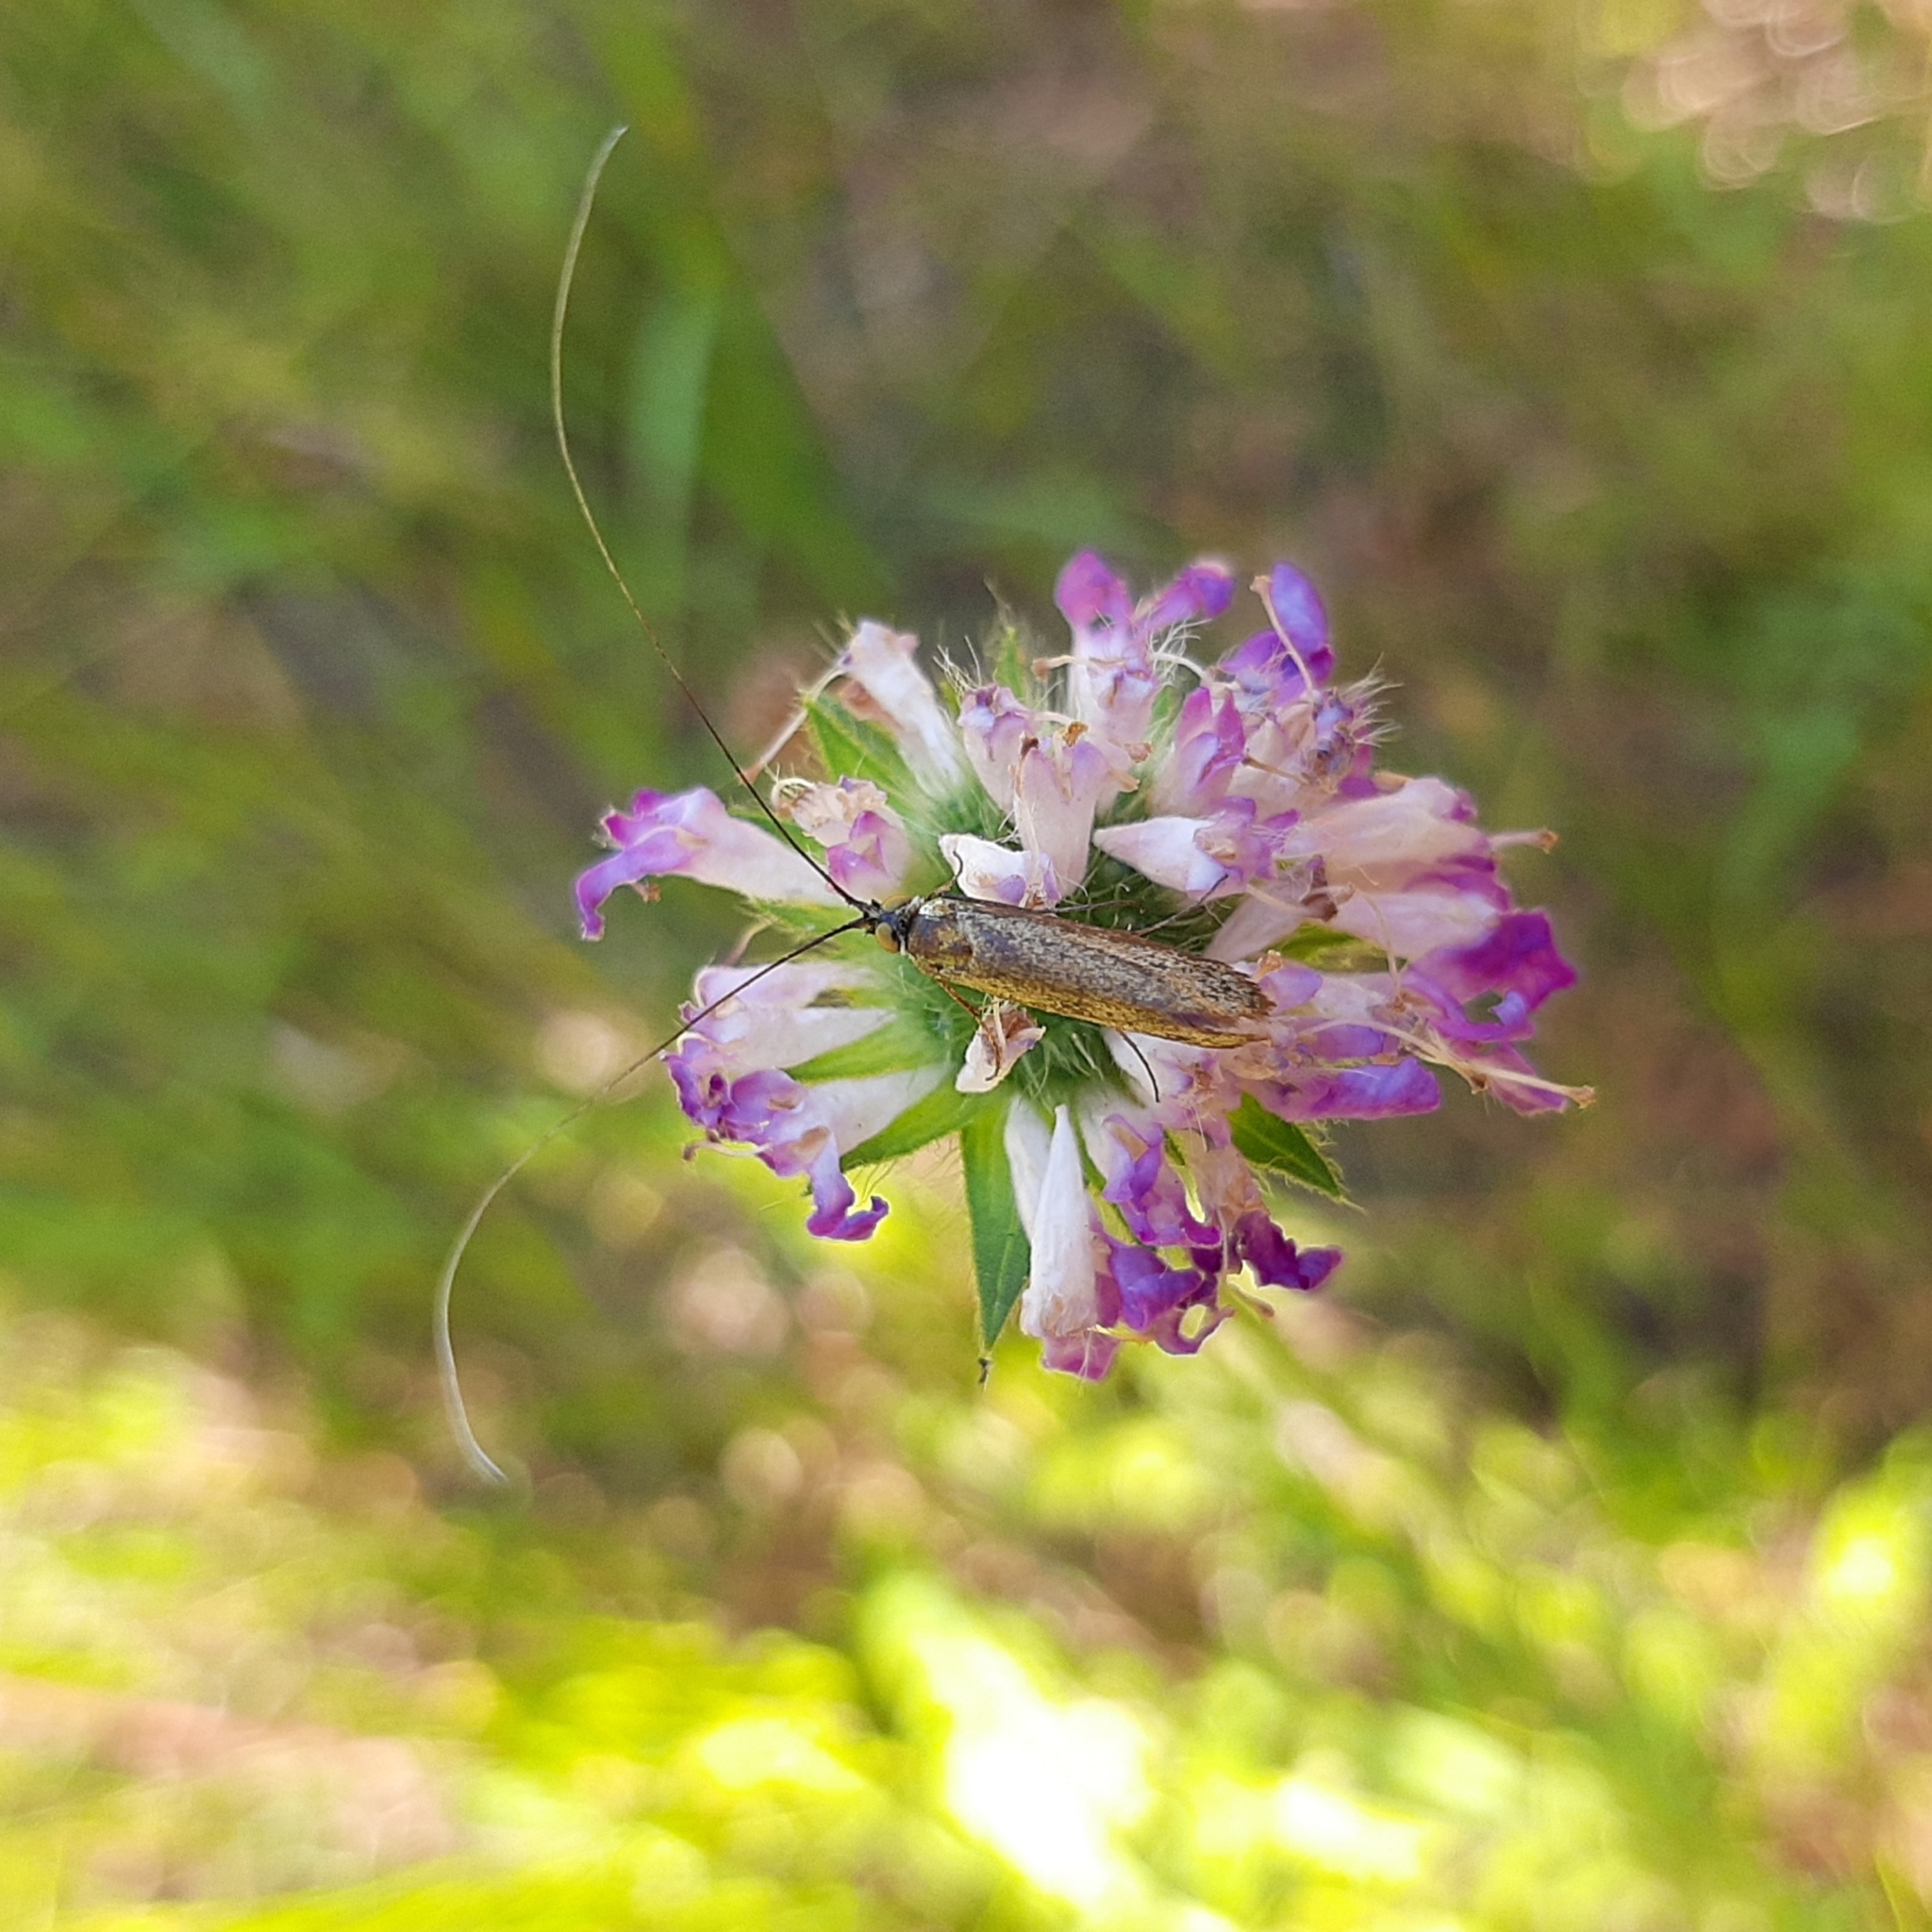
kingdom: Animalia
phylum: Arthropoda
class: Insecta
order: Lepidoptera
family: Adelidae
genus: Nemophora
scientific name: Nemophora metallica
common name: Brassy long-horn
